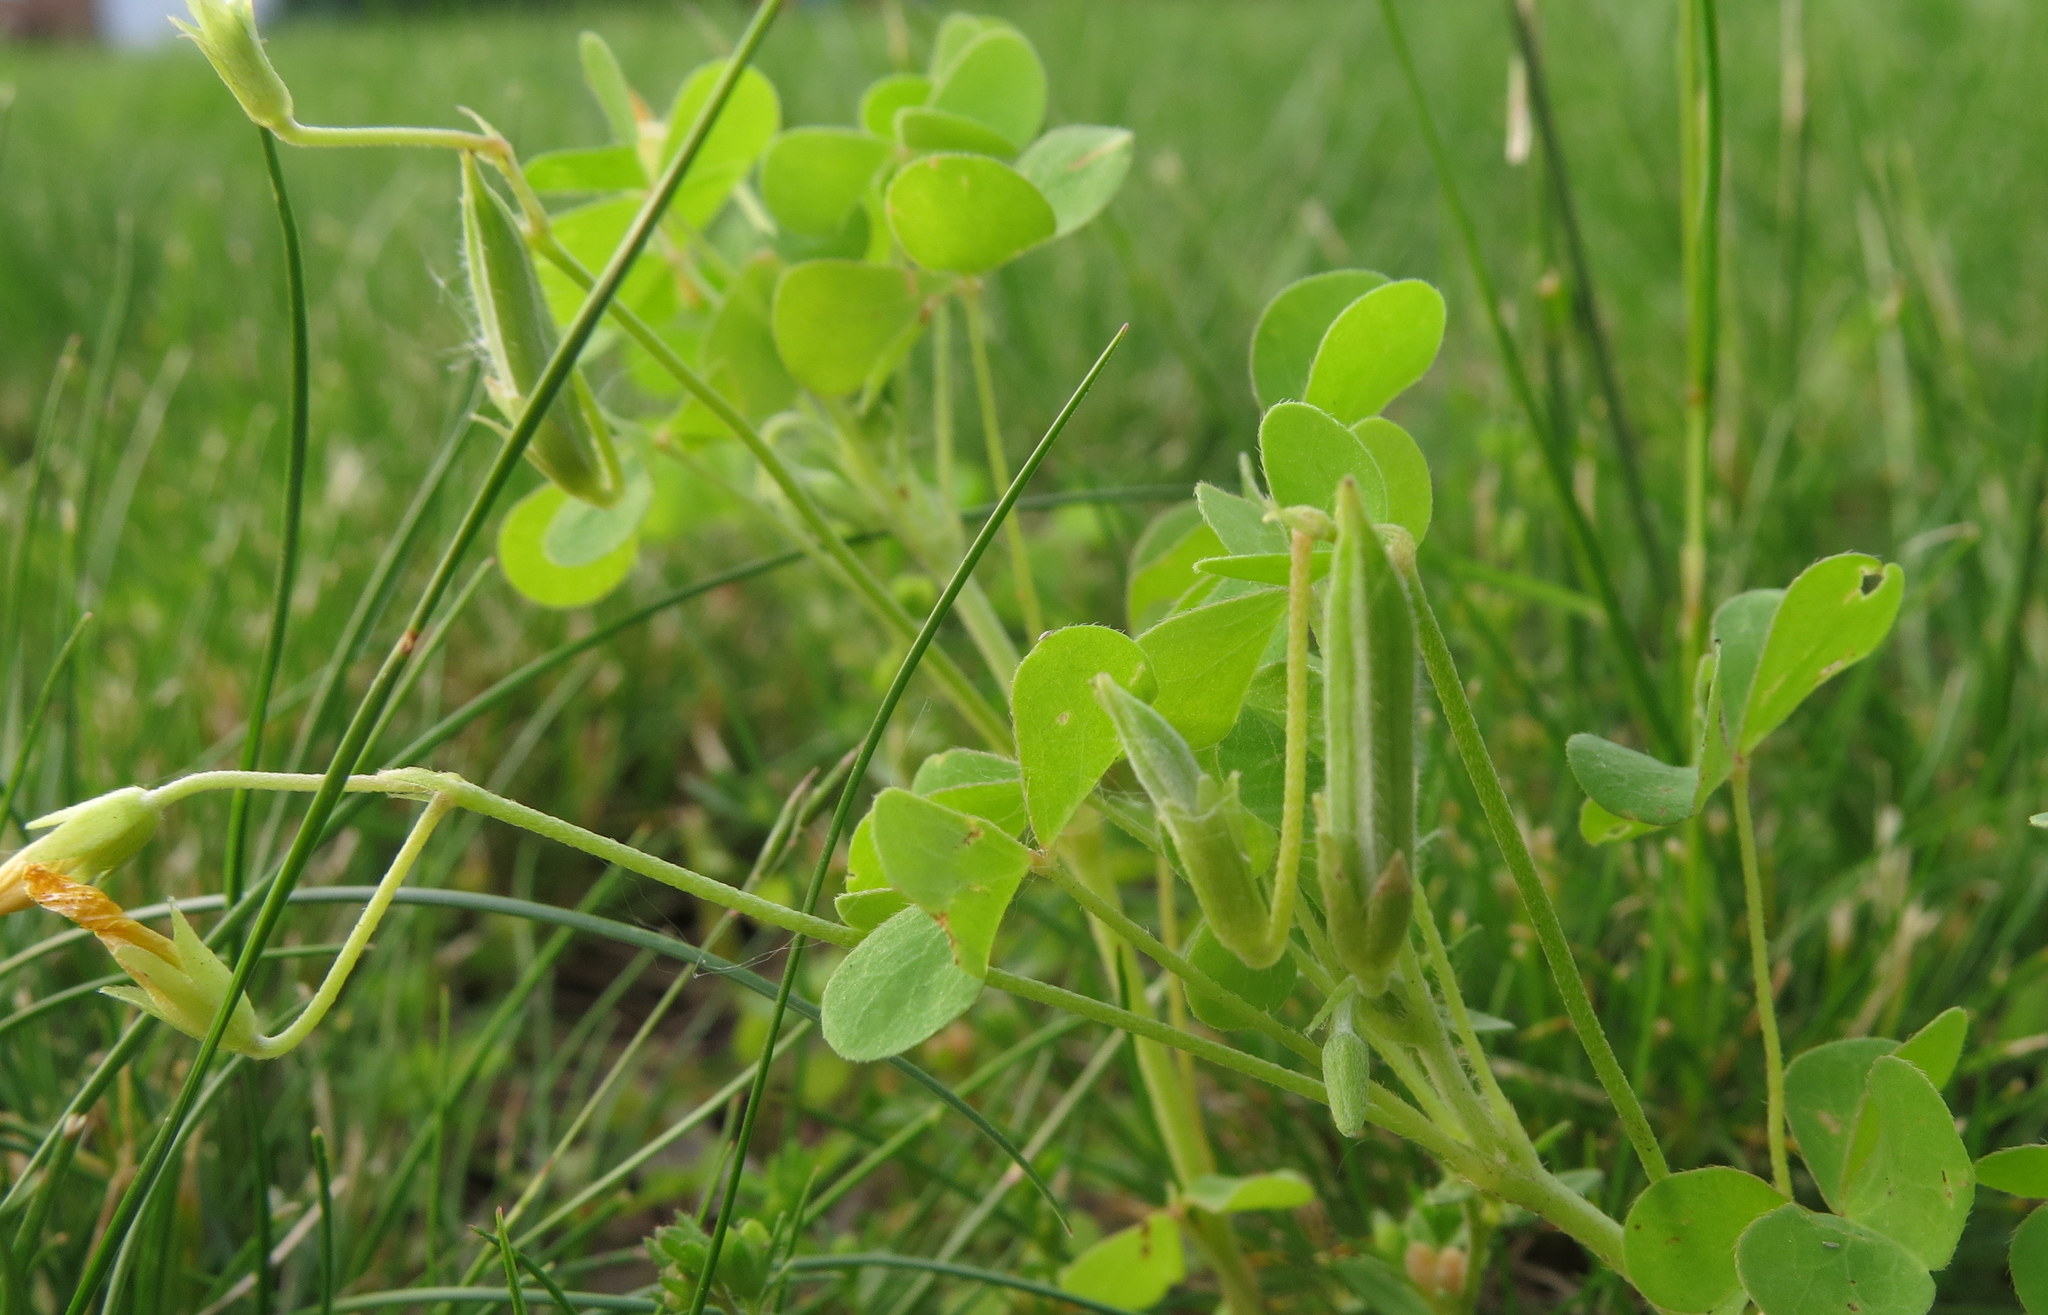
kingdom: Plantae
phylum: Tracheophyta
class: Magnoliopsida
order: Oxalidales
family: Oxalidaceae
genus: Oxalis
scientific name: Oxalis dillenii
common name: Sussex yellow-sorrel
